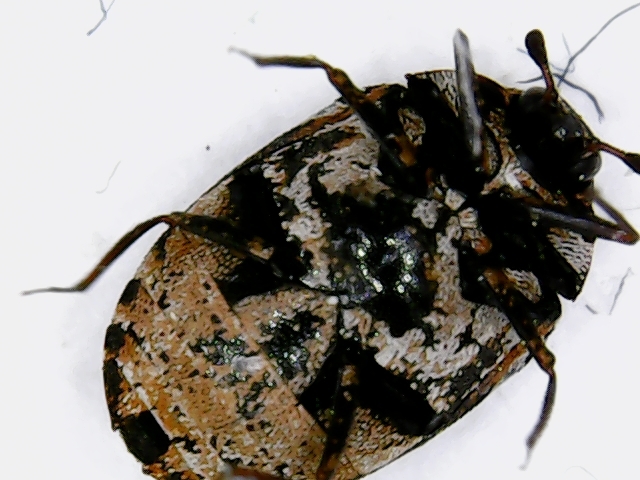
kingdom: Animalia
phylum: Arthropoda
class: Insecta
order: Coleoptera
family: Dermestidae
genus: Anthrenus
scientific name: Anthrenus scrophulariae
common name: Buffalo carpet beetle
